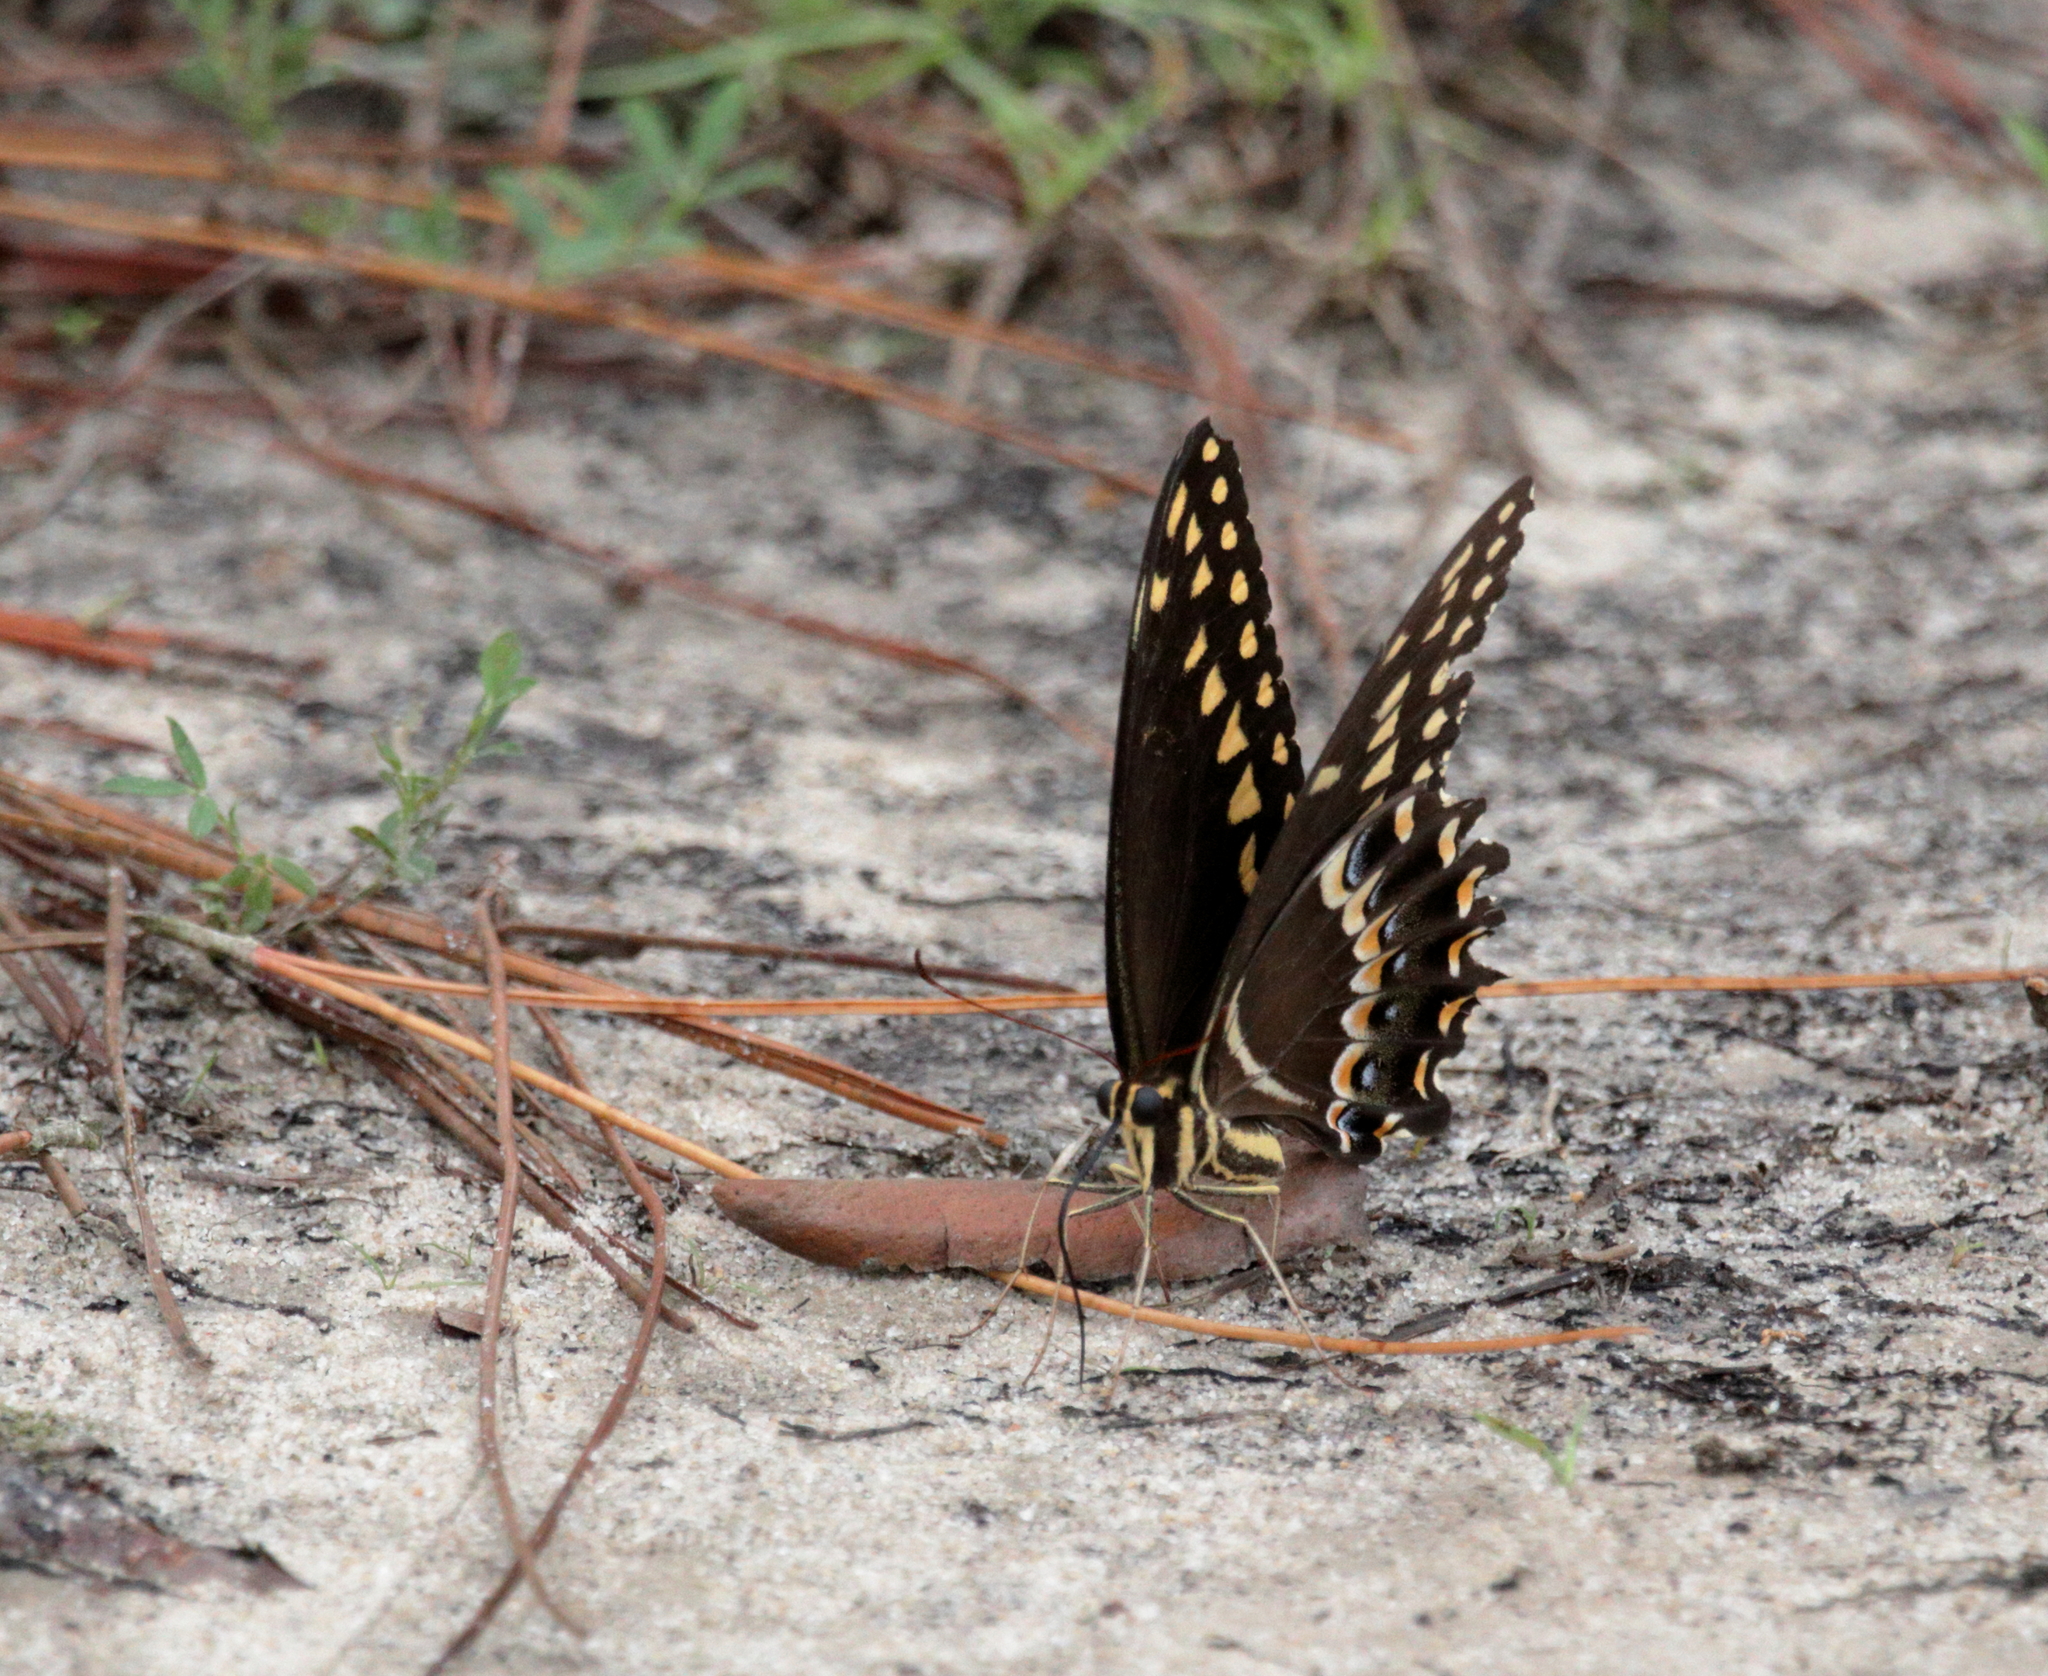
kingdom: Animalia
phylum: Arthropoda
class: Insecta
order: Lepidoptera
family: Papilionidae
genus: Papilio
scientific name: Papilio palamedes
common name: Palamedes swallowtail
